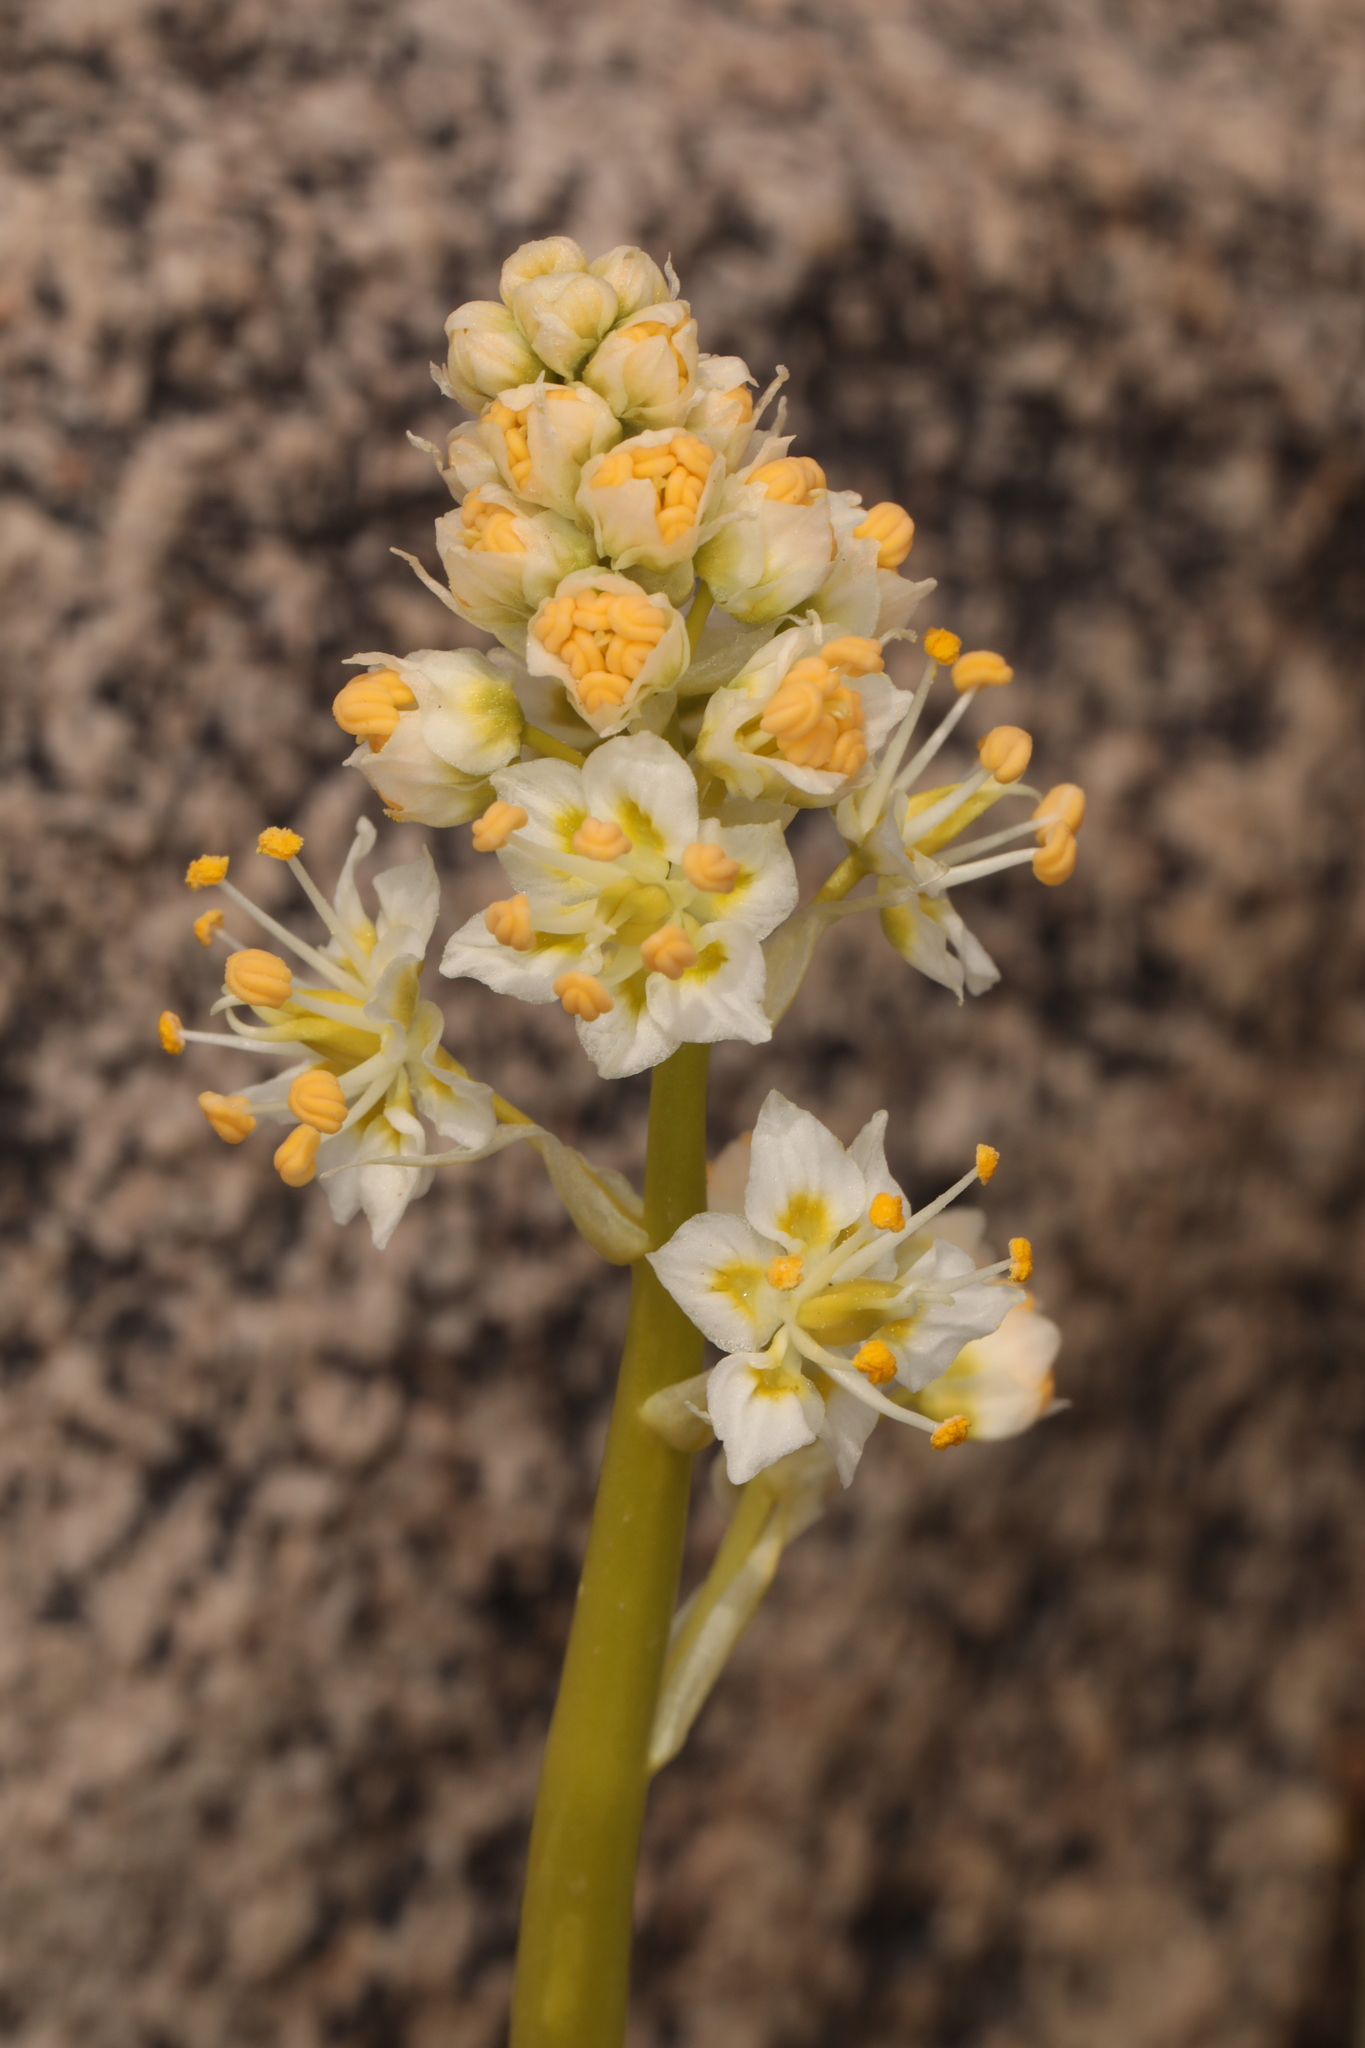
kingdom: Plantae
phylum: Tracheophyta
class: Liliopsida
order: Liliales
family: Melanthiaceae
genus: Toxicoscordion
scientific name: Toxicoscordion paniculatum
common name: Foothill death camas
